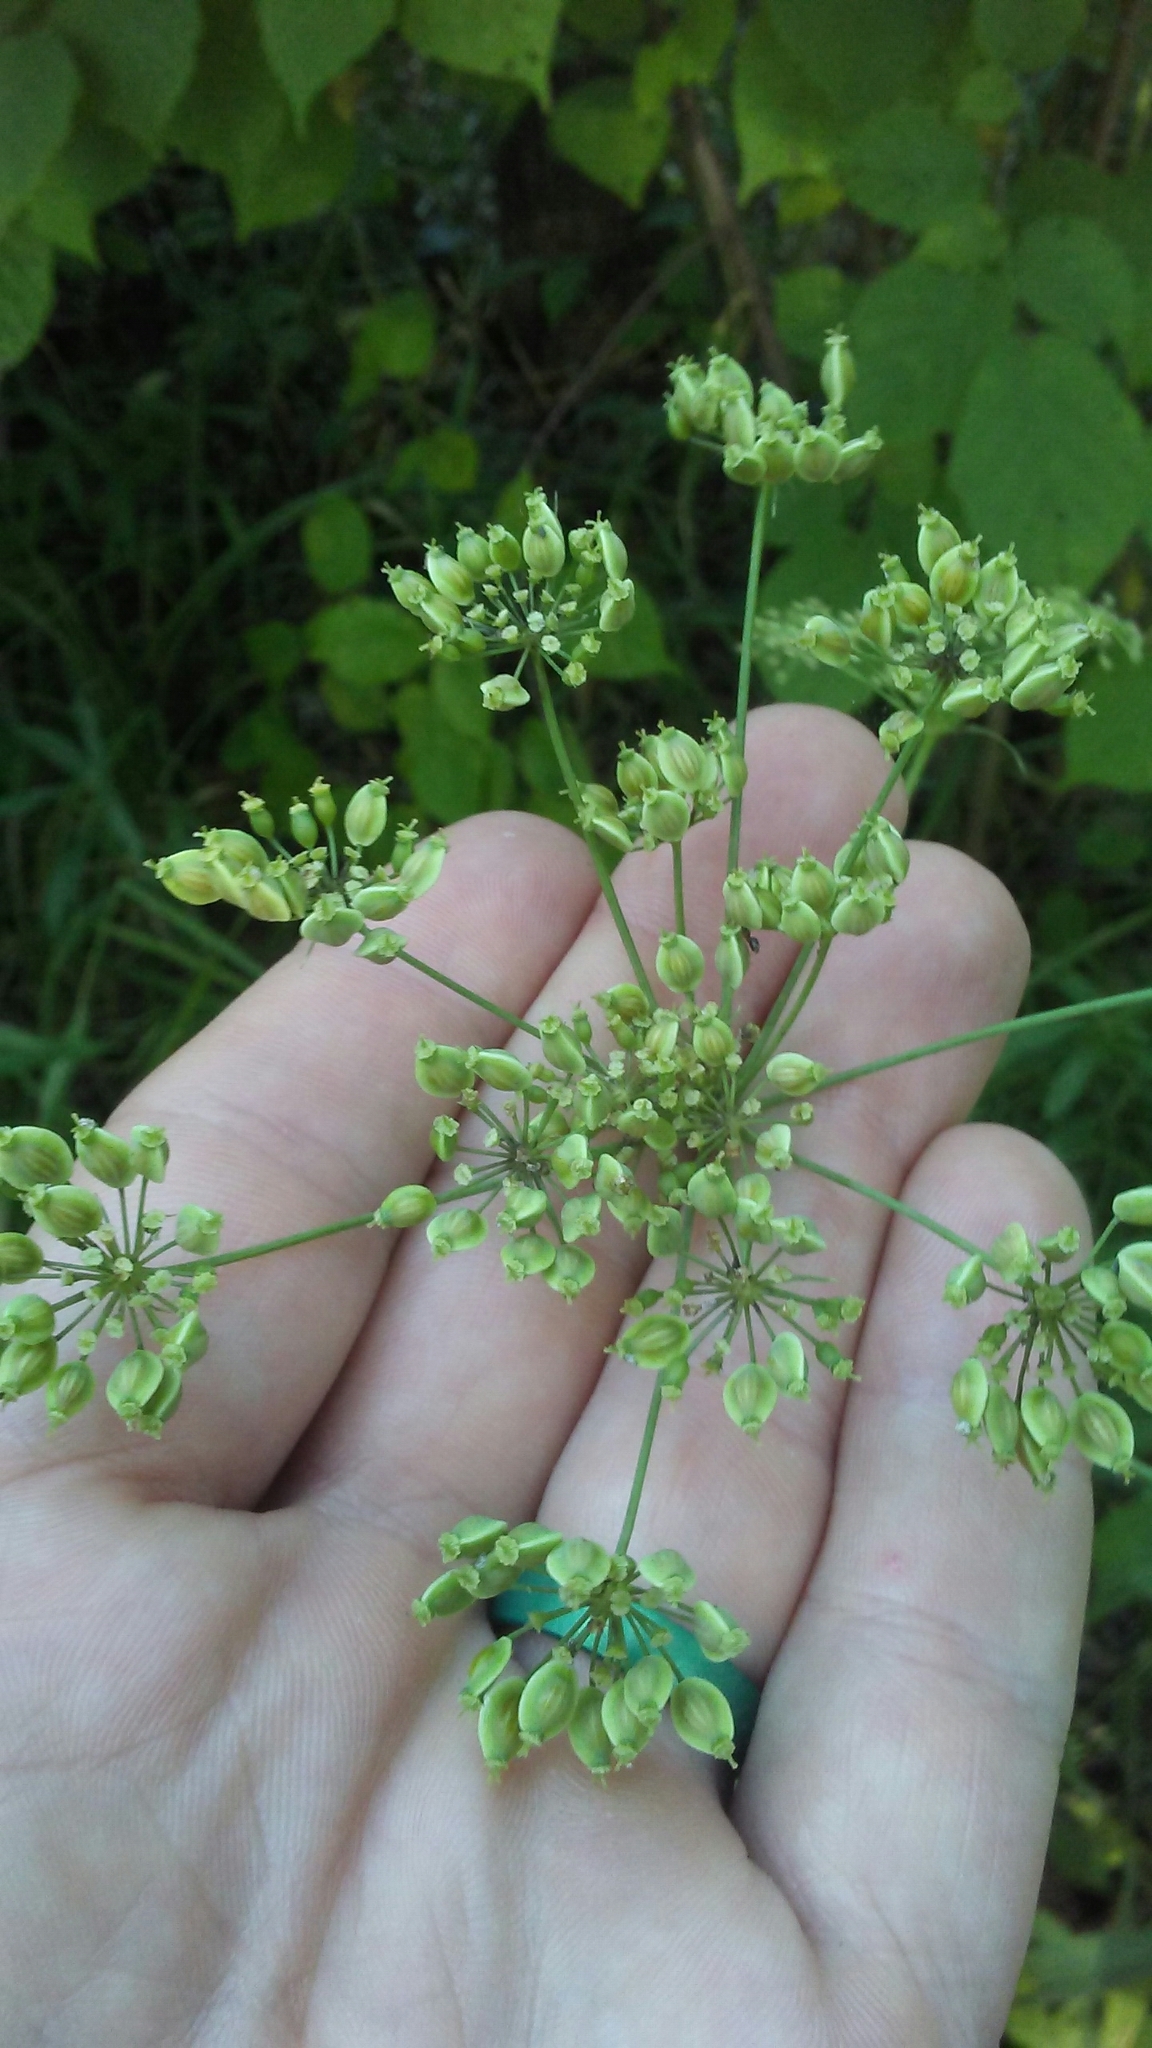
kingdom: Plantae
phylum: Tracheophyta
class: Magnoliopsida
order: Apiales
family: Apiaceae
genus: Oxypolis
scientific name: Oxypolis rigidior
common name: Cowbane
